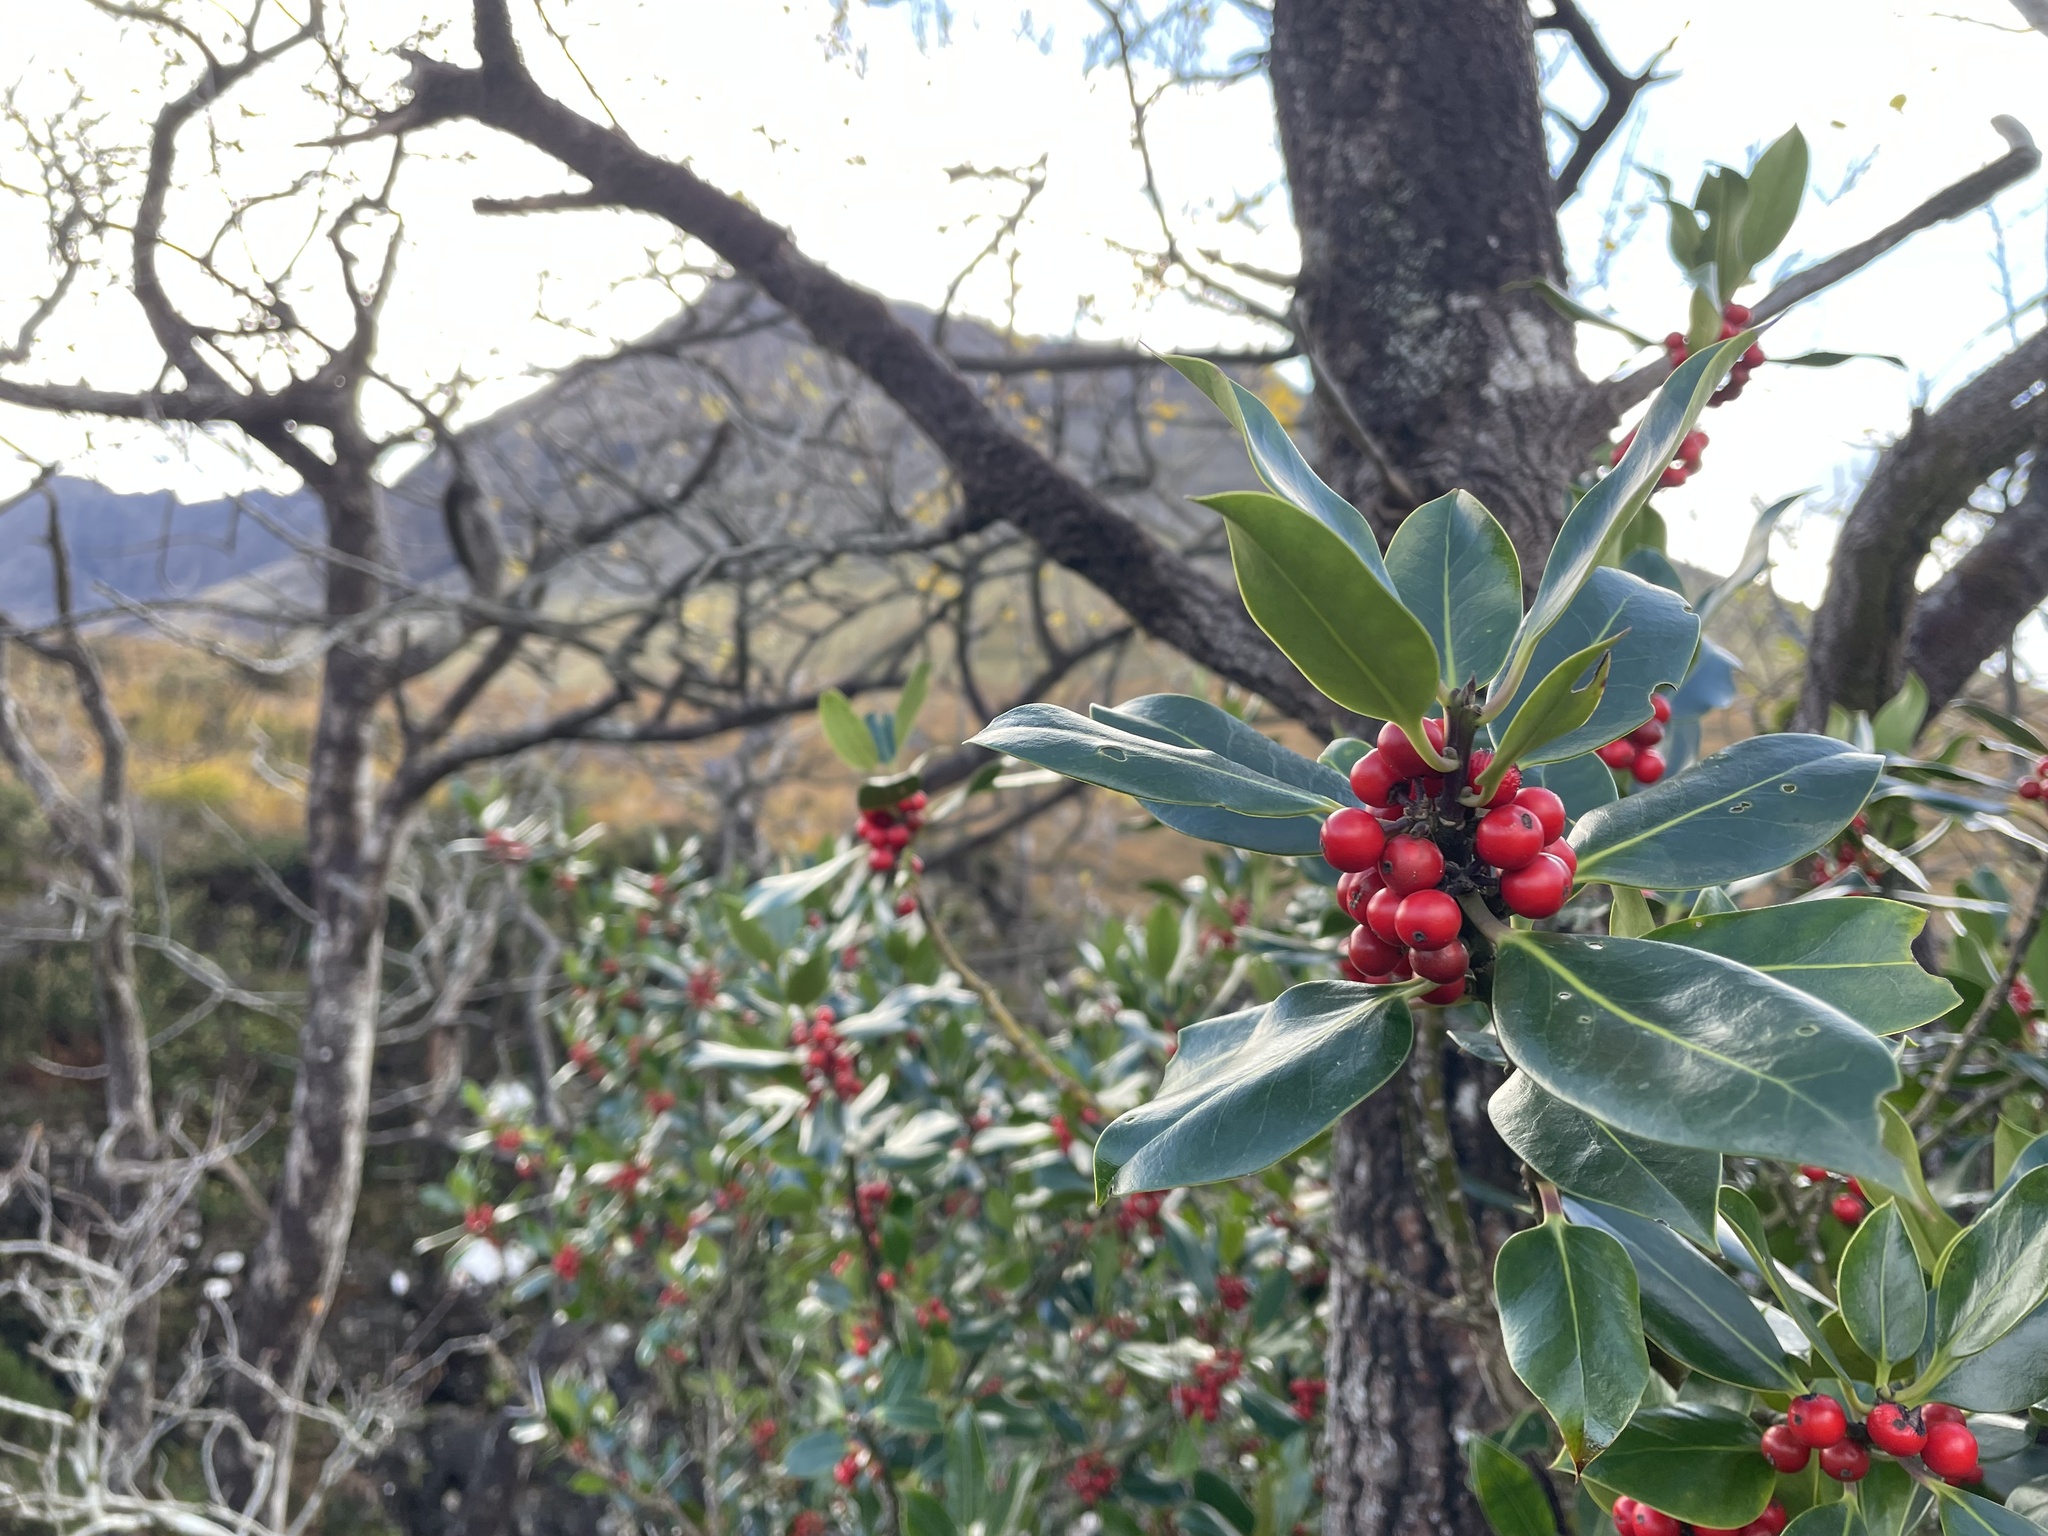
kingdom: Plantae
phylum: Tracheophyta
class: Magnoliopsida
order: Aquifoliales
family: Aquifoliaceae
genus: Ilex
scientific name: Ilex aquifolium
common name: English holly
